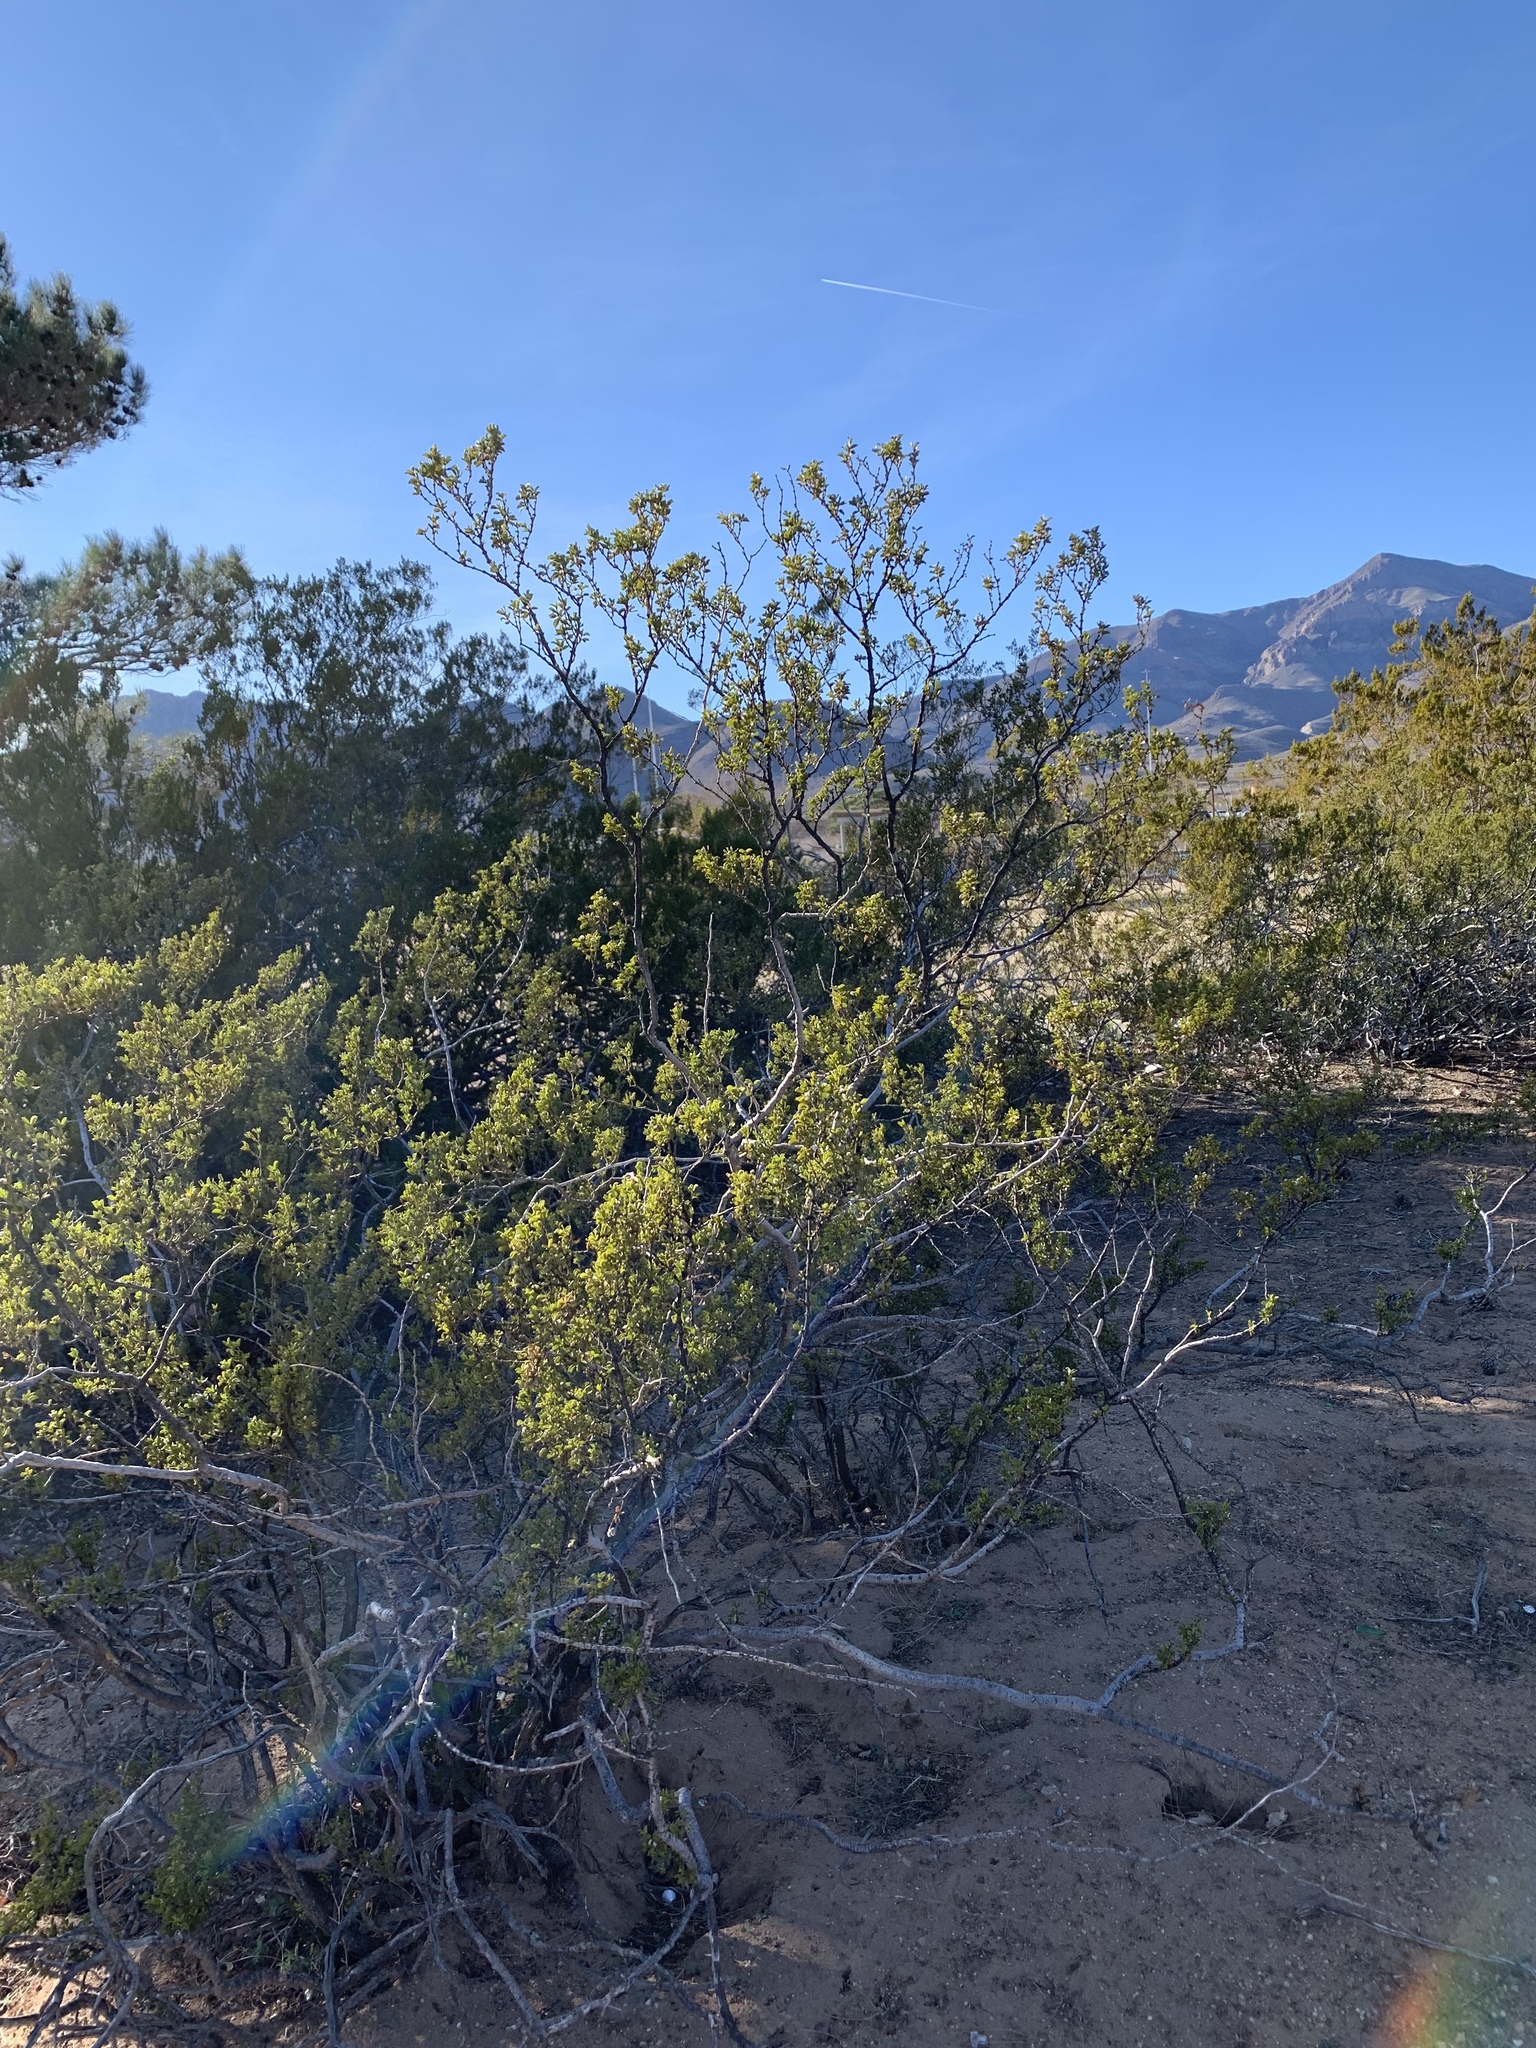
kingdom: Plantae
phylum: Tracheophyta
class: Magnoliopsida
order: Zygophyllales
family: Zygophyllaceae
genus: Larrea
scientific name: Larrea tridentata
